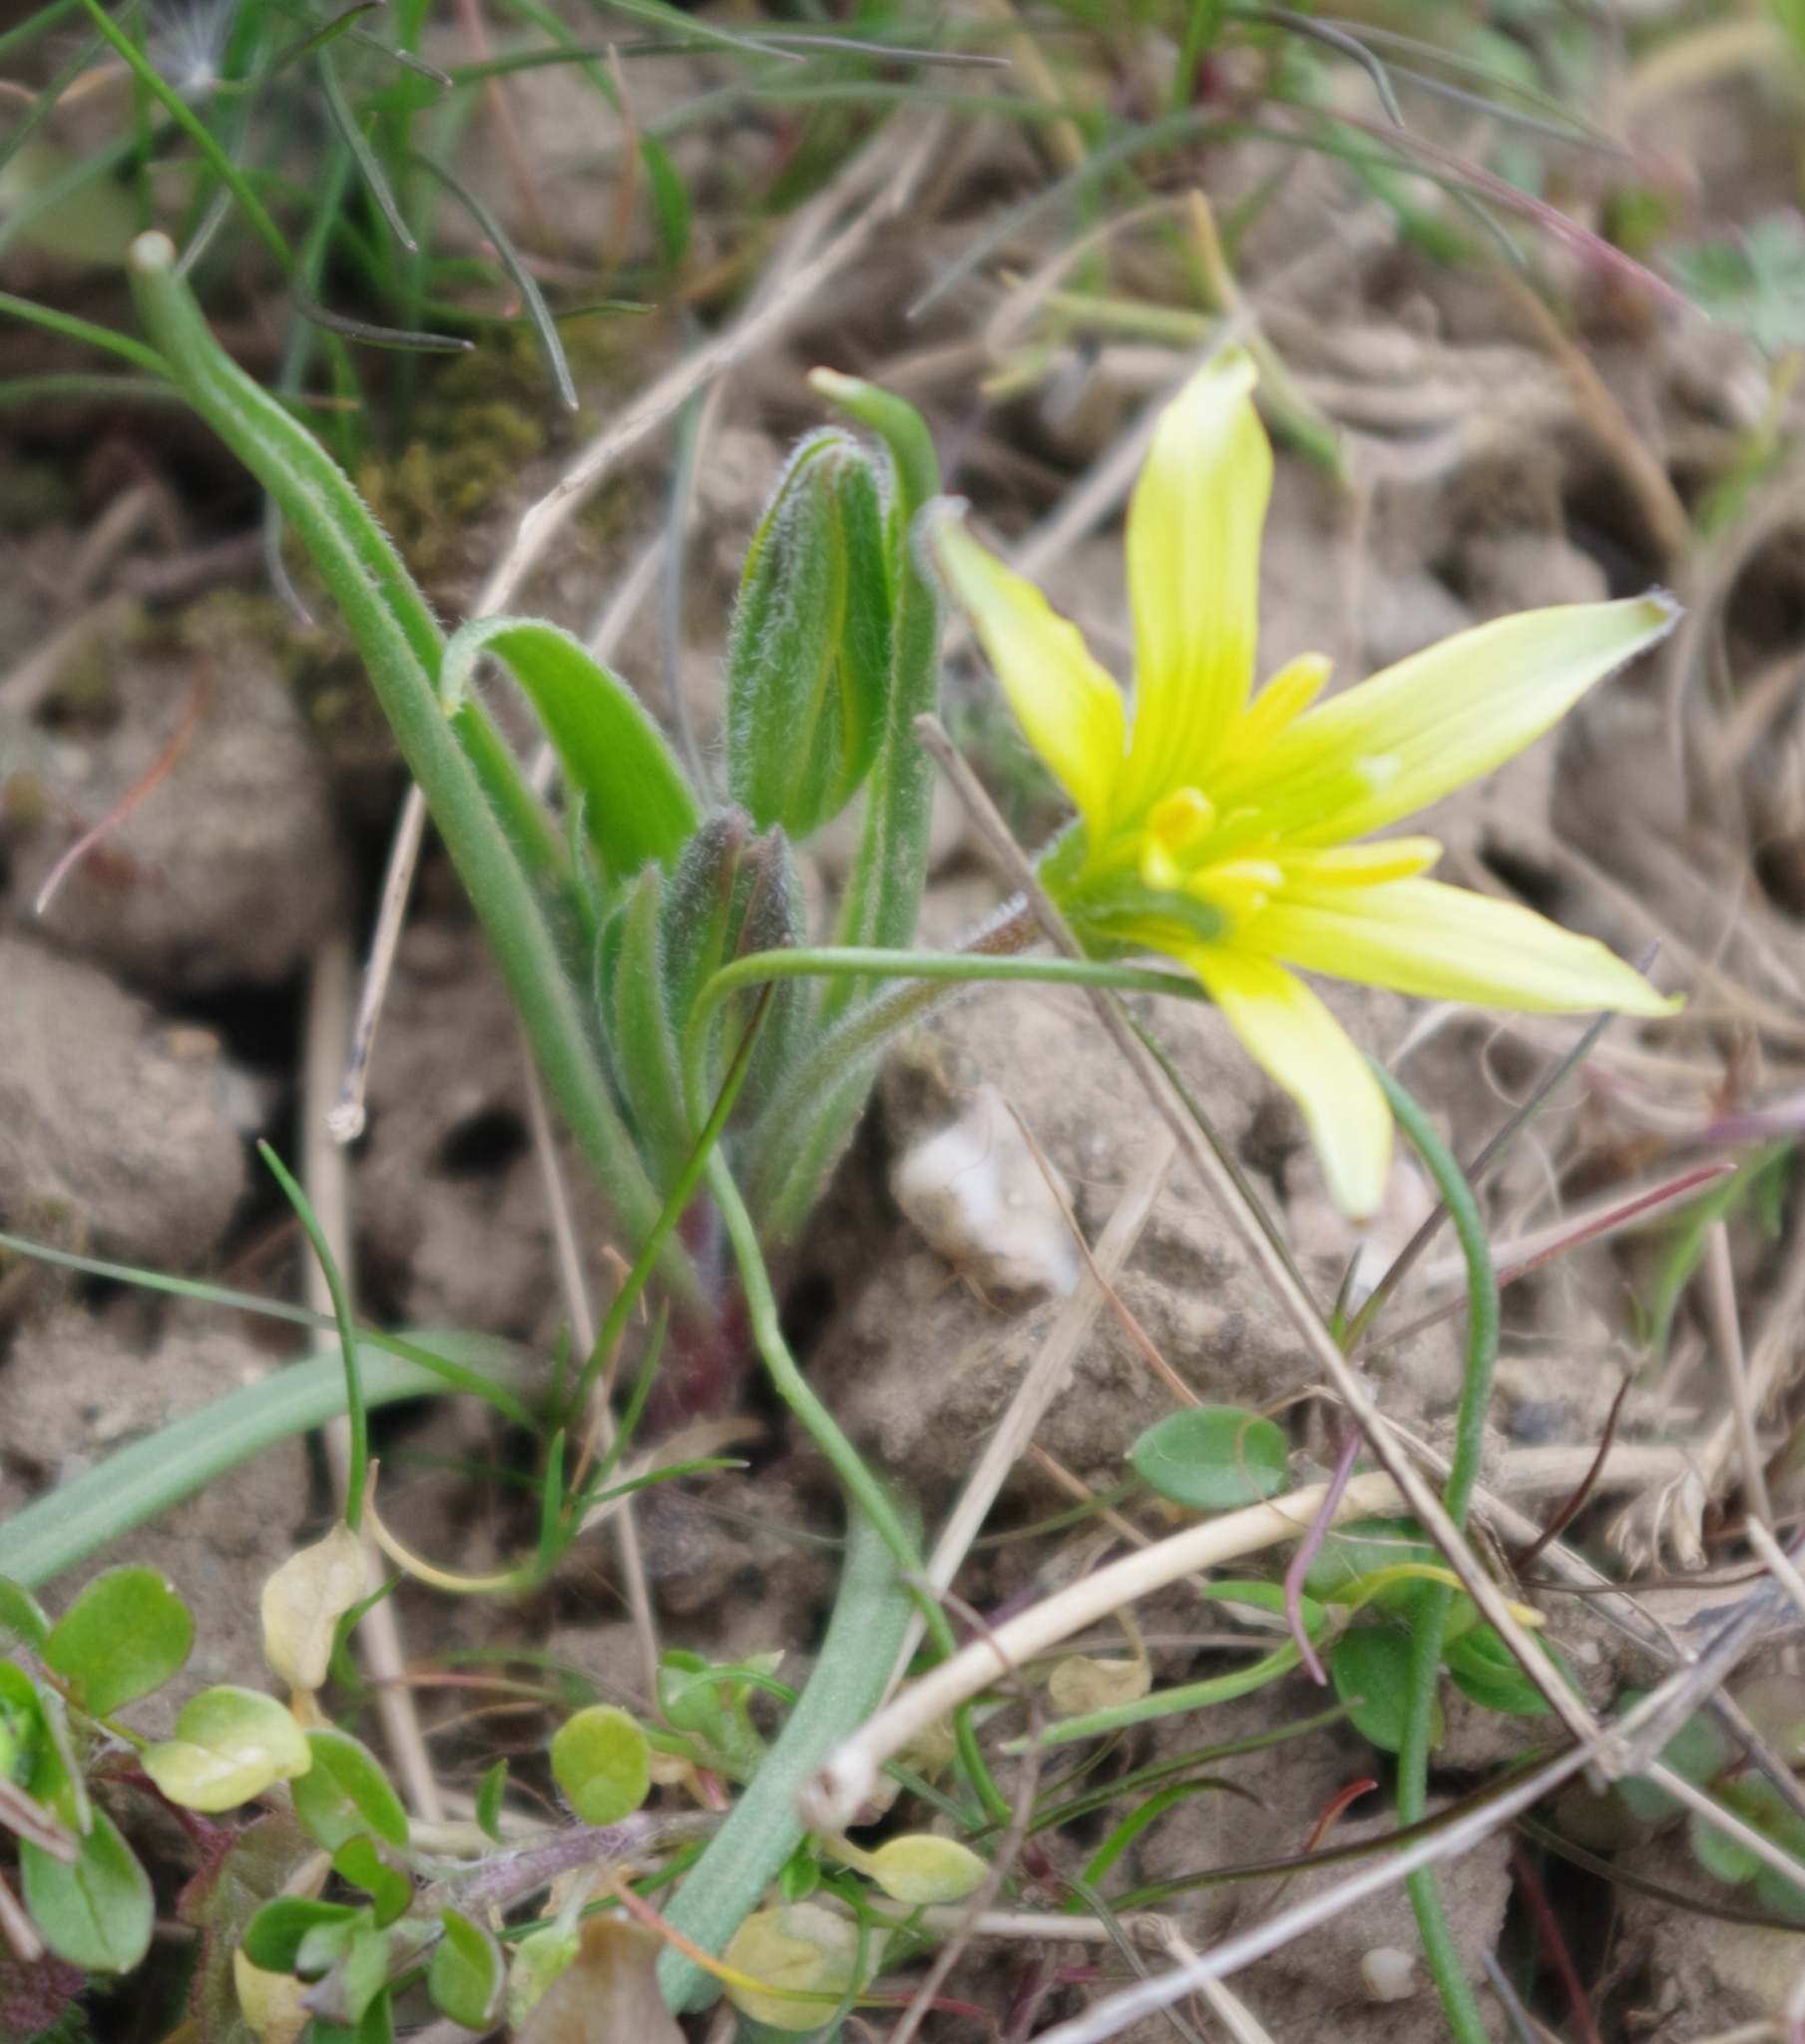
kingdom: Plantae
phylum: Tracheophyta
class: Liliopsida
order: Liliales
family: Liliaceae
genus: Gagea
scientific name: Gagea villosa
